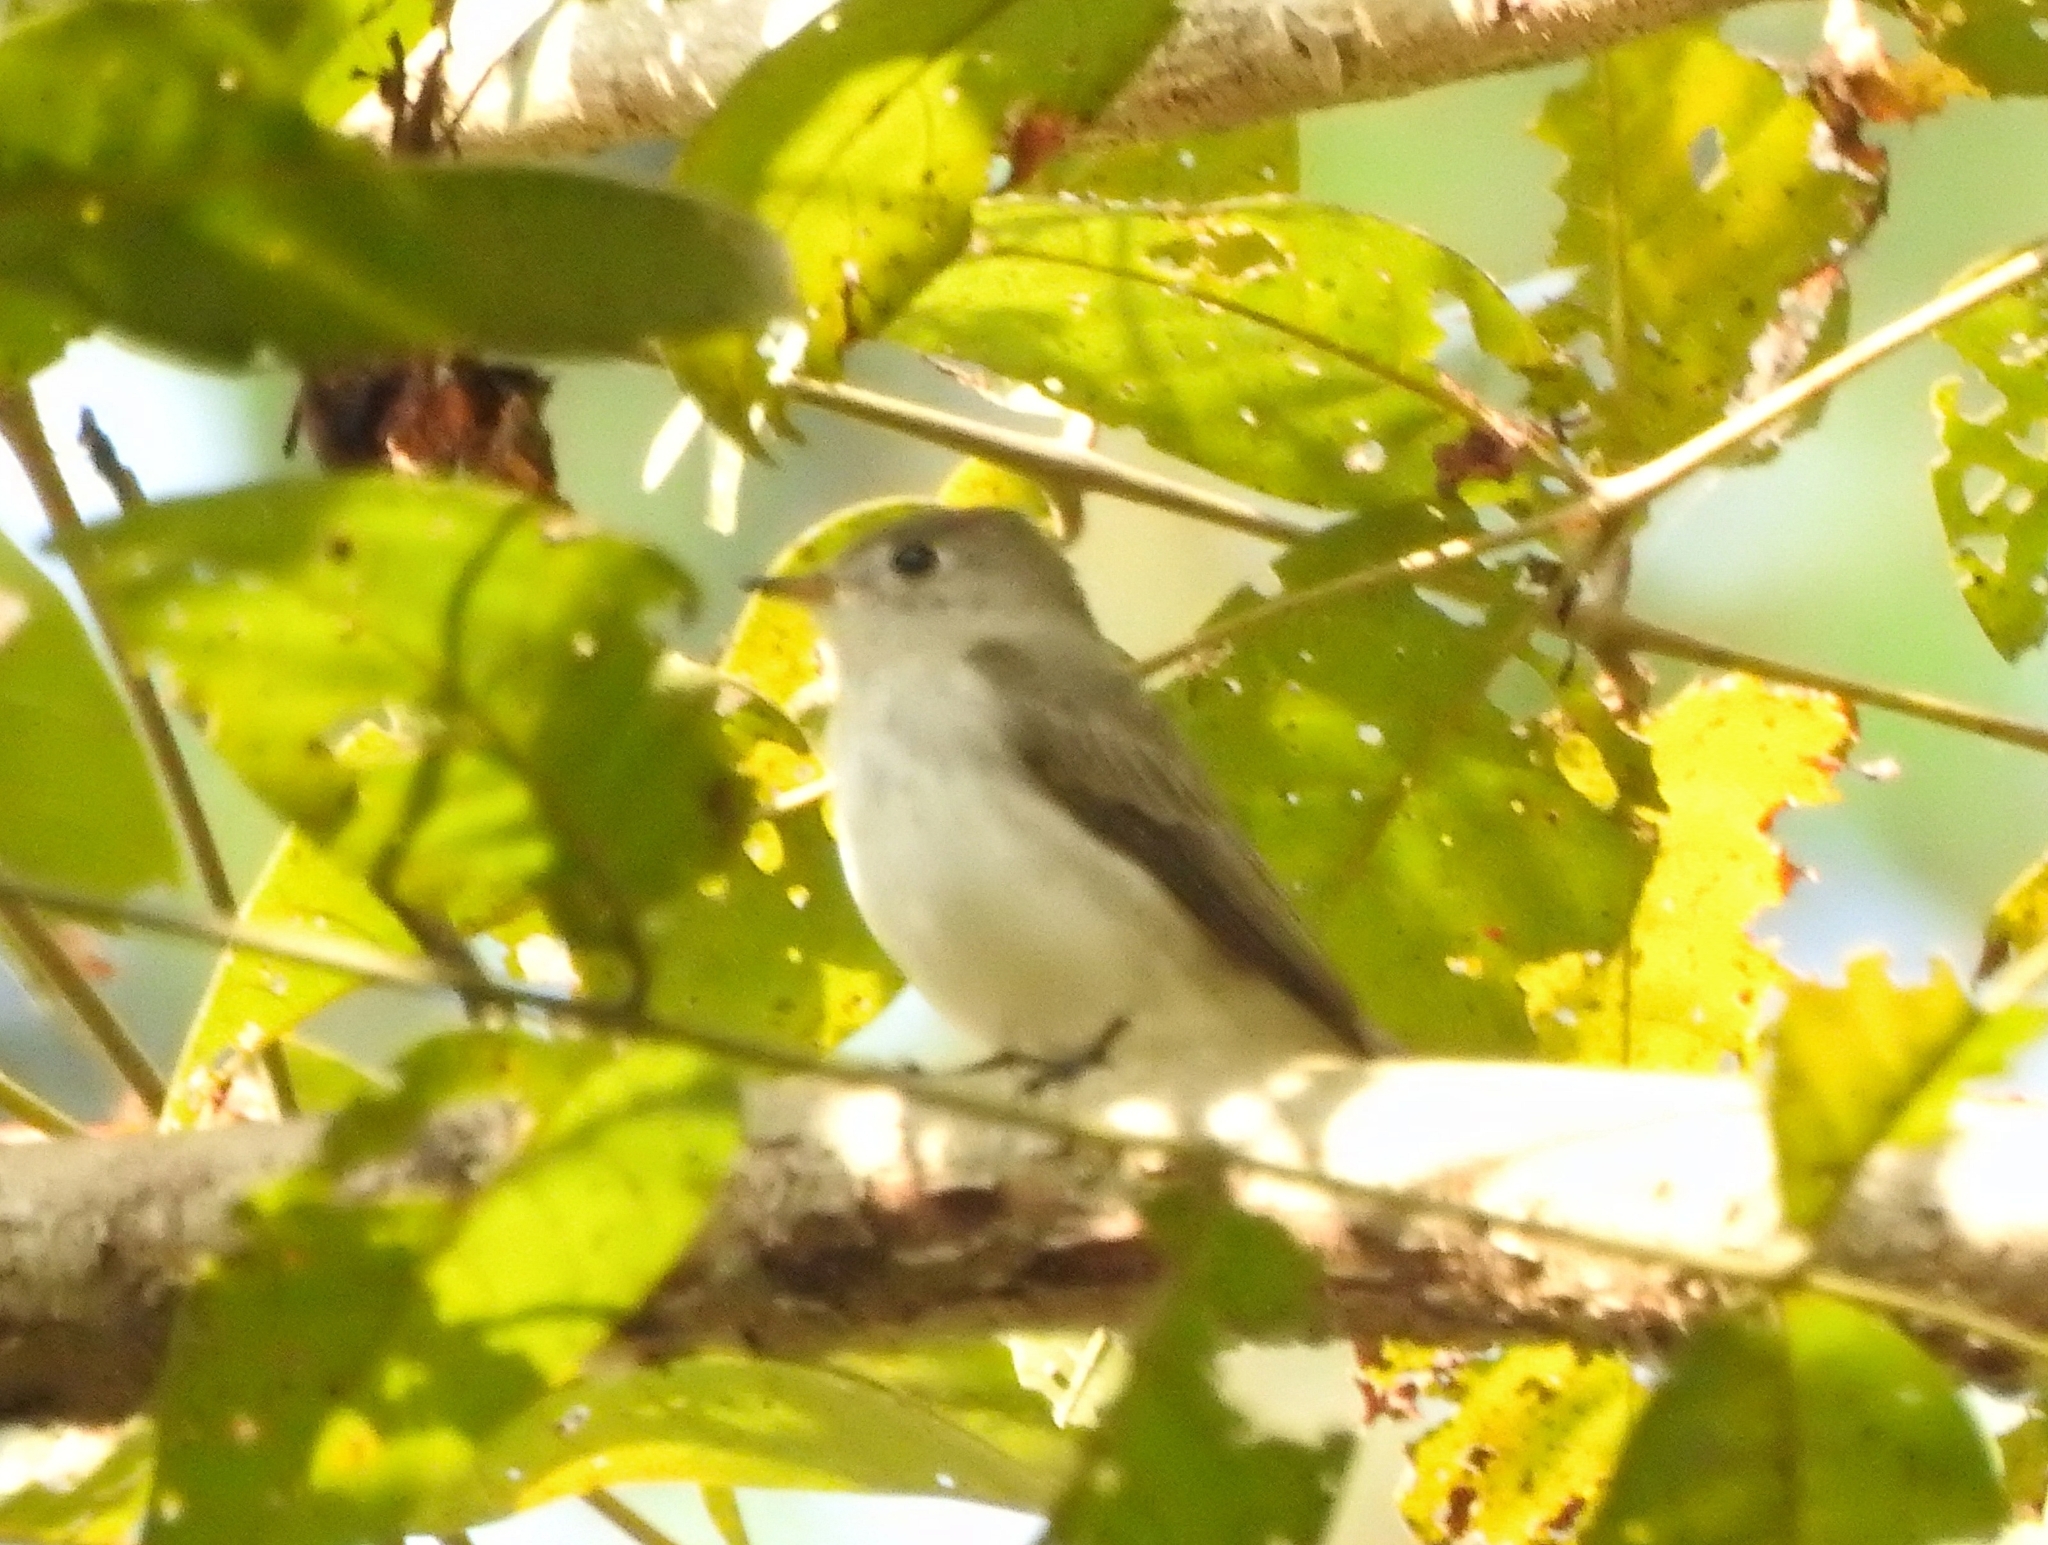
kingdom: Animalia
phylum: Chordata
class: Aves
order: Passeriformes
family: Muscicapidae
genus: Muscicapa
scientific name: Muscicapa latirostris
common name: Asian brown flycatcher
